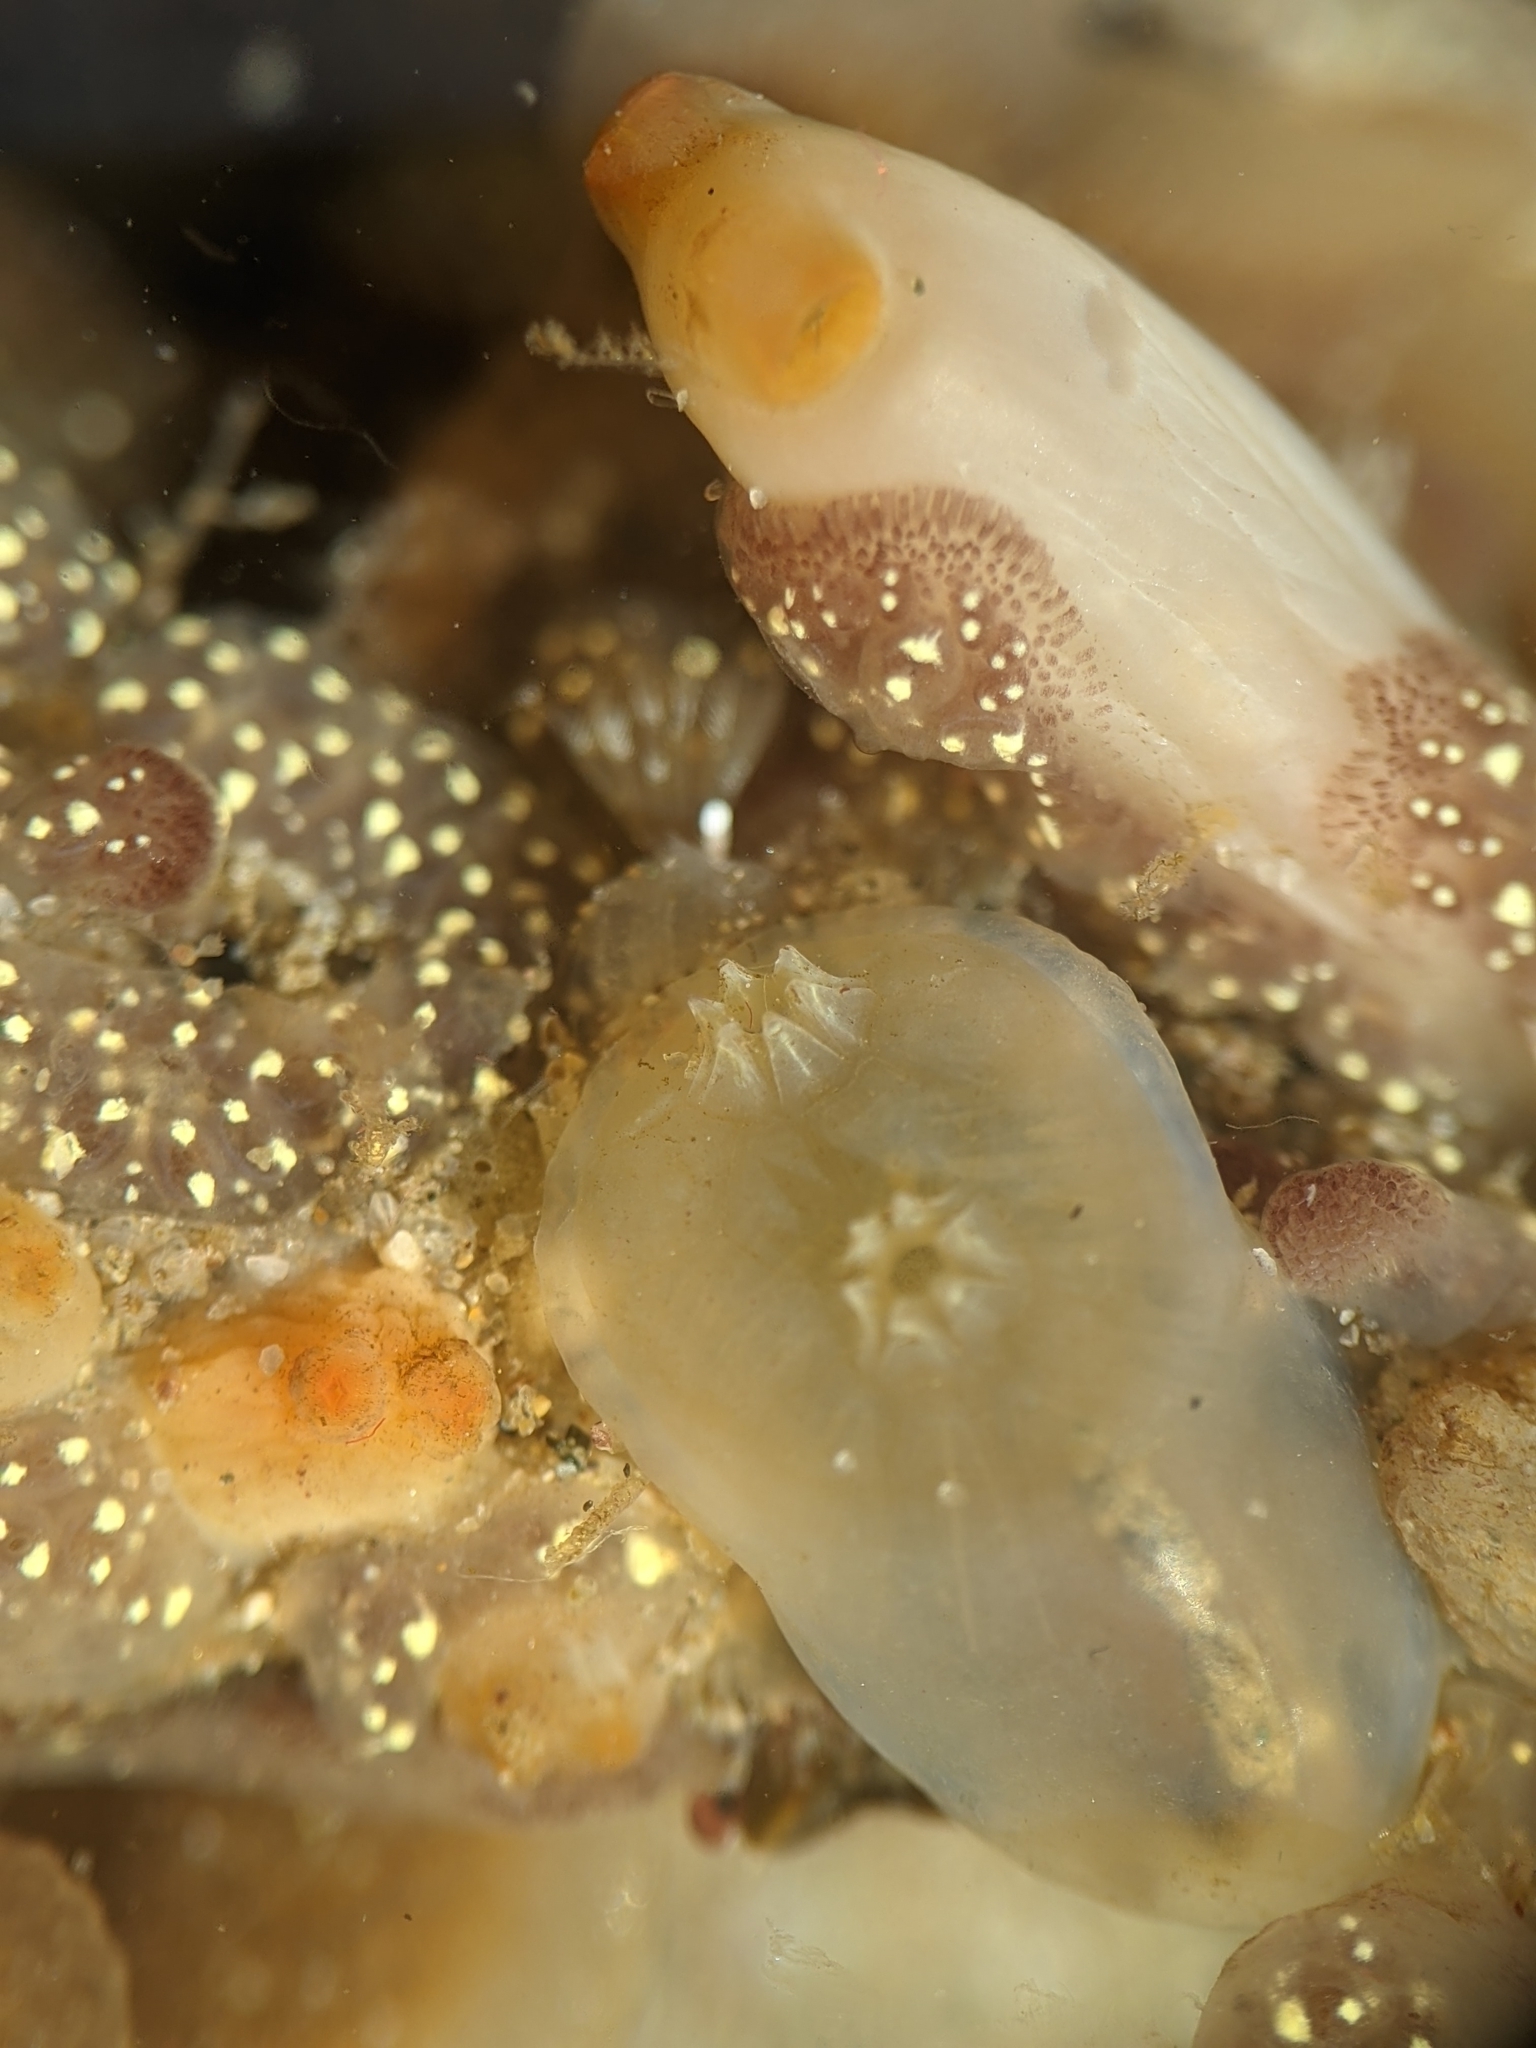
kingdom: Animalia
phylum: Chordata
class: Ascidiacea
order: Phlebobranchia
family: Corellidae
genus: Chelyosoma
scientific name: Chelyosoma productum
